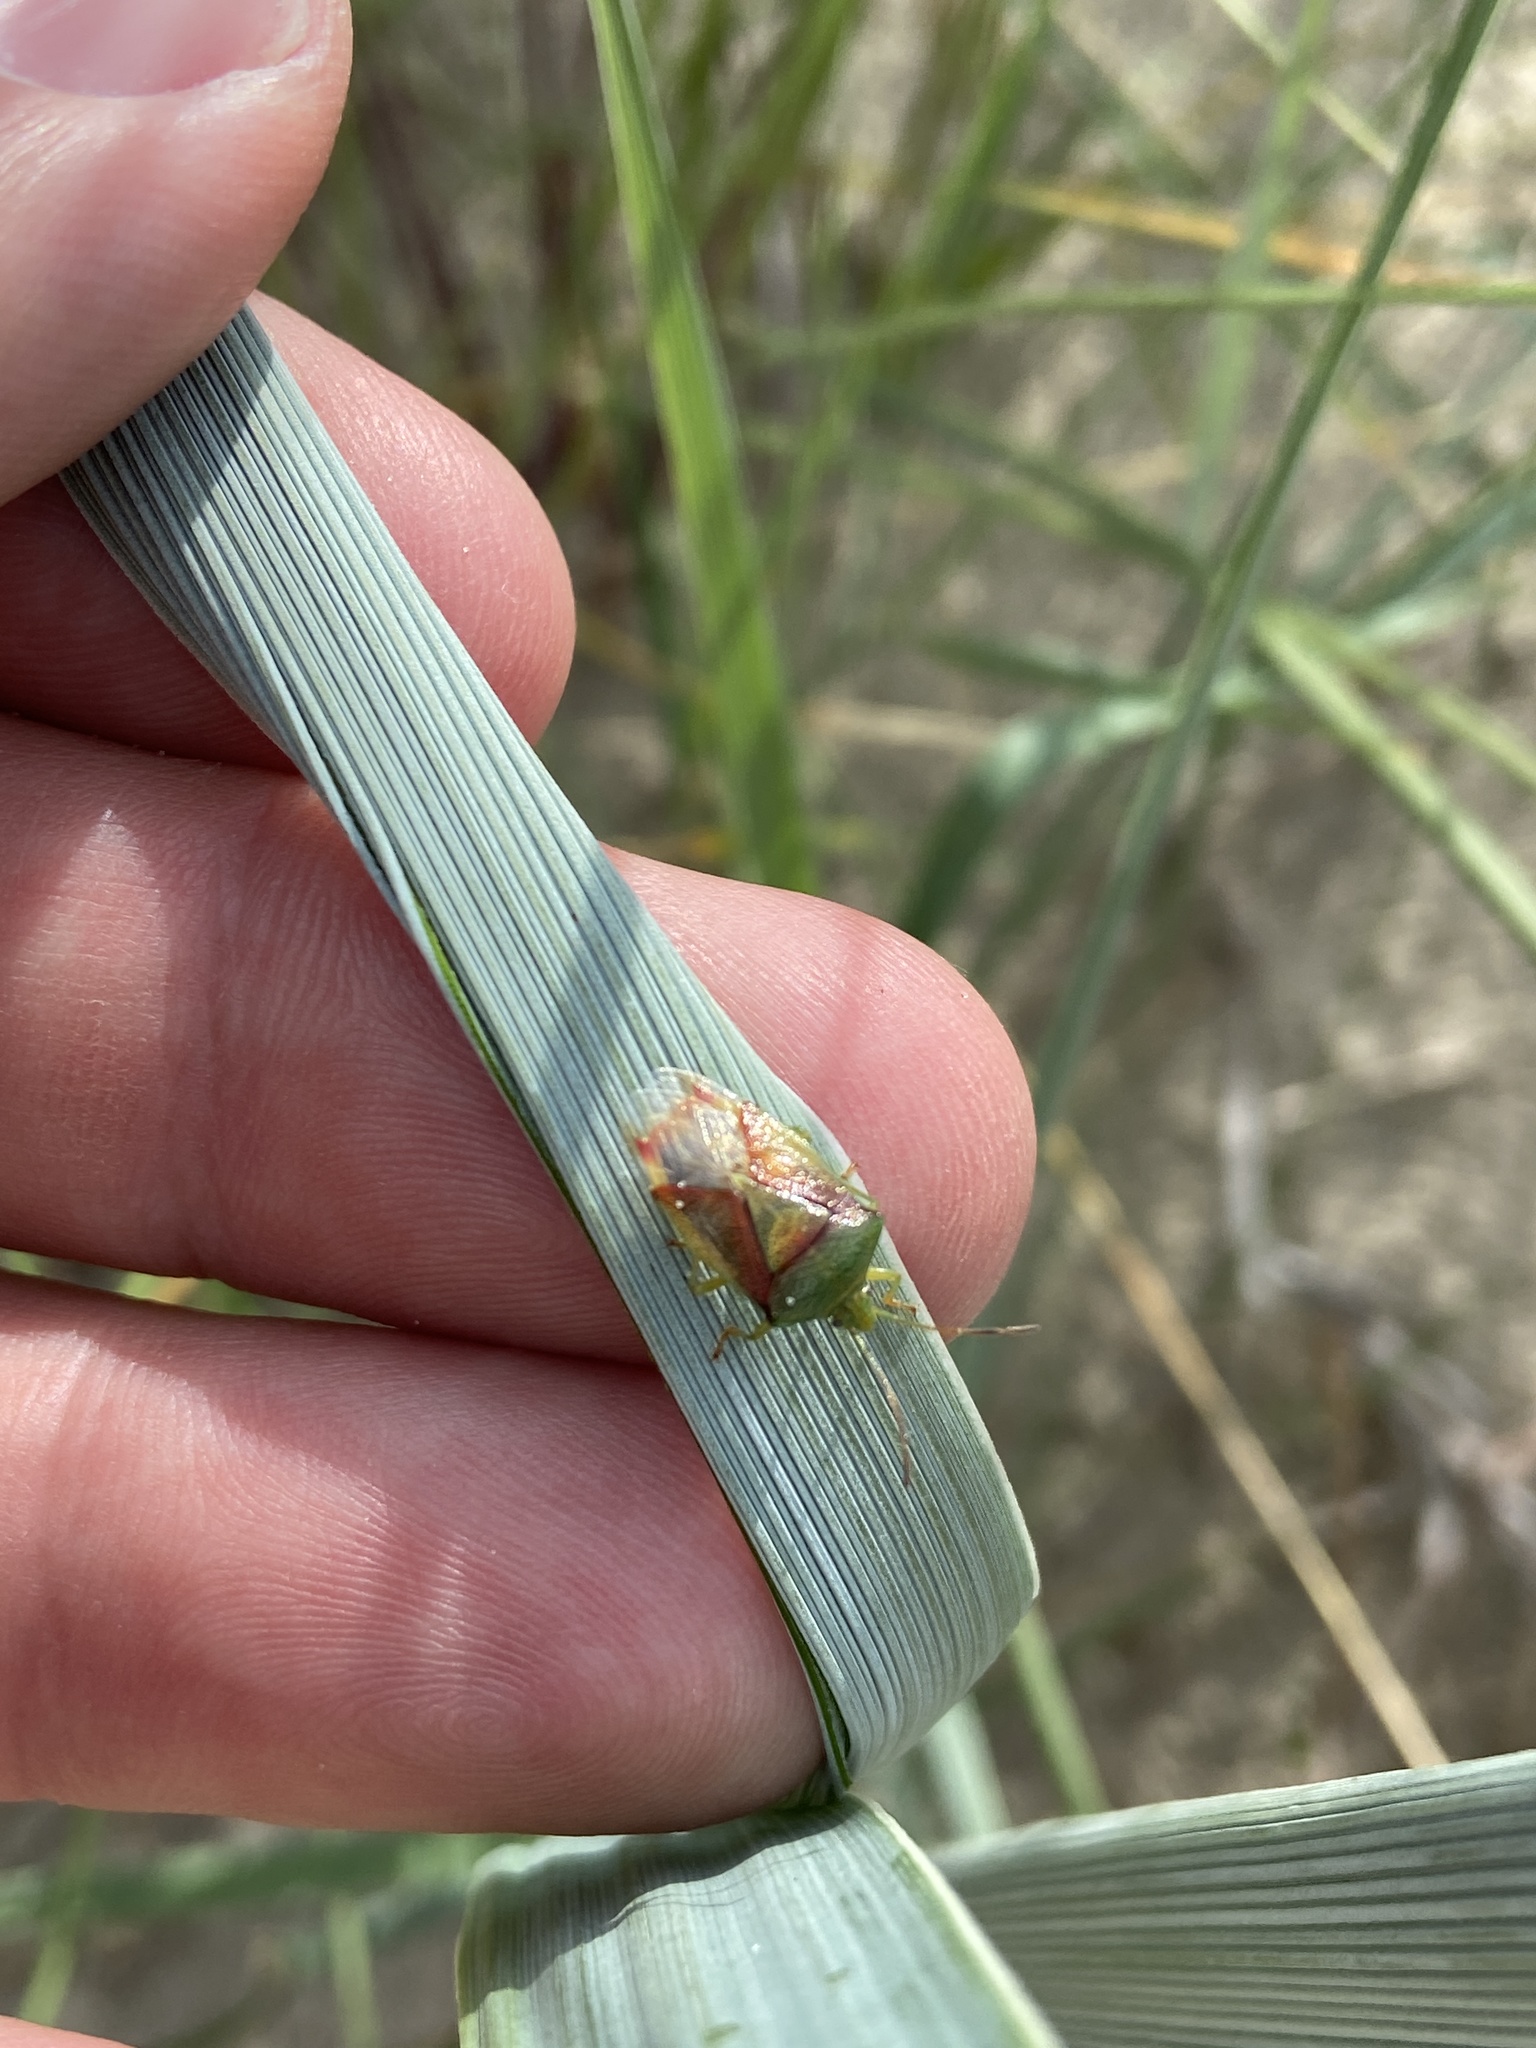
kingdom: Animalia
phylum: Arthropoda
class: Insecta
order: Hemiptera
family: Acanthosomatidae
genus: Elasmostethus
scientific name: Elasmostethus interstinctus
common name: Birch shieldbug
